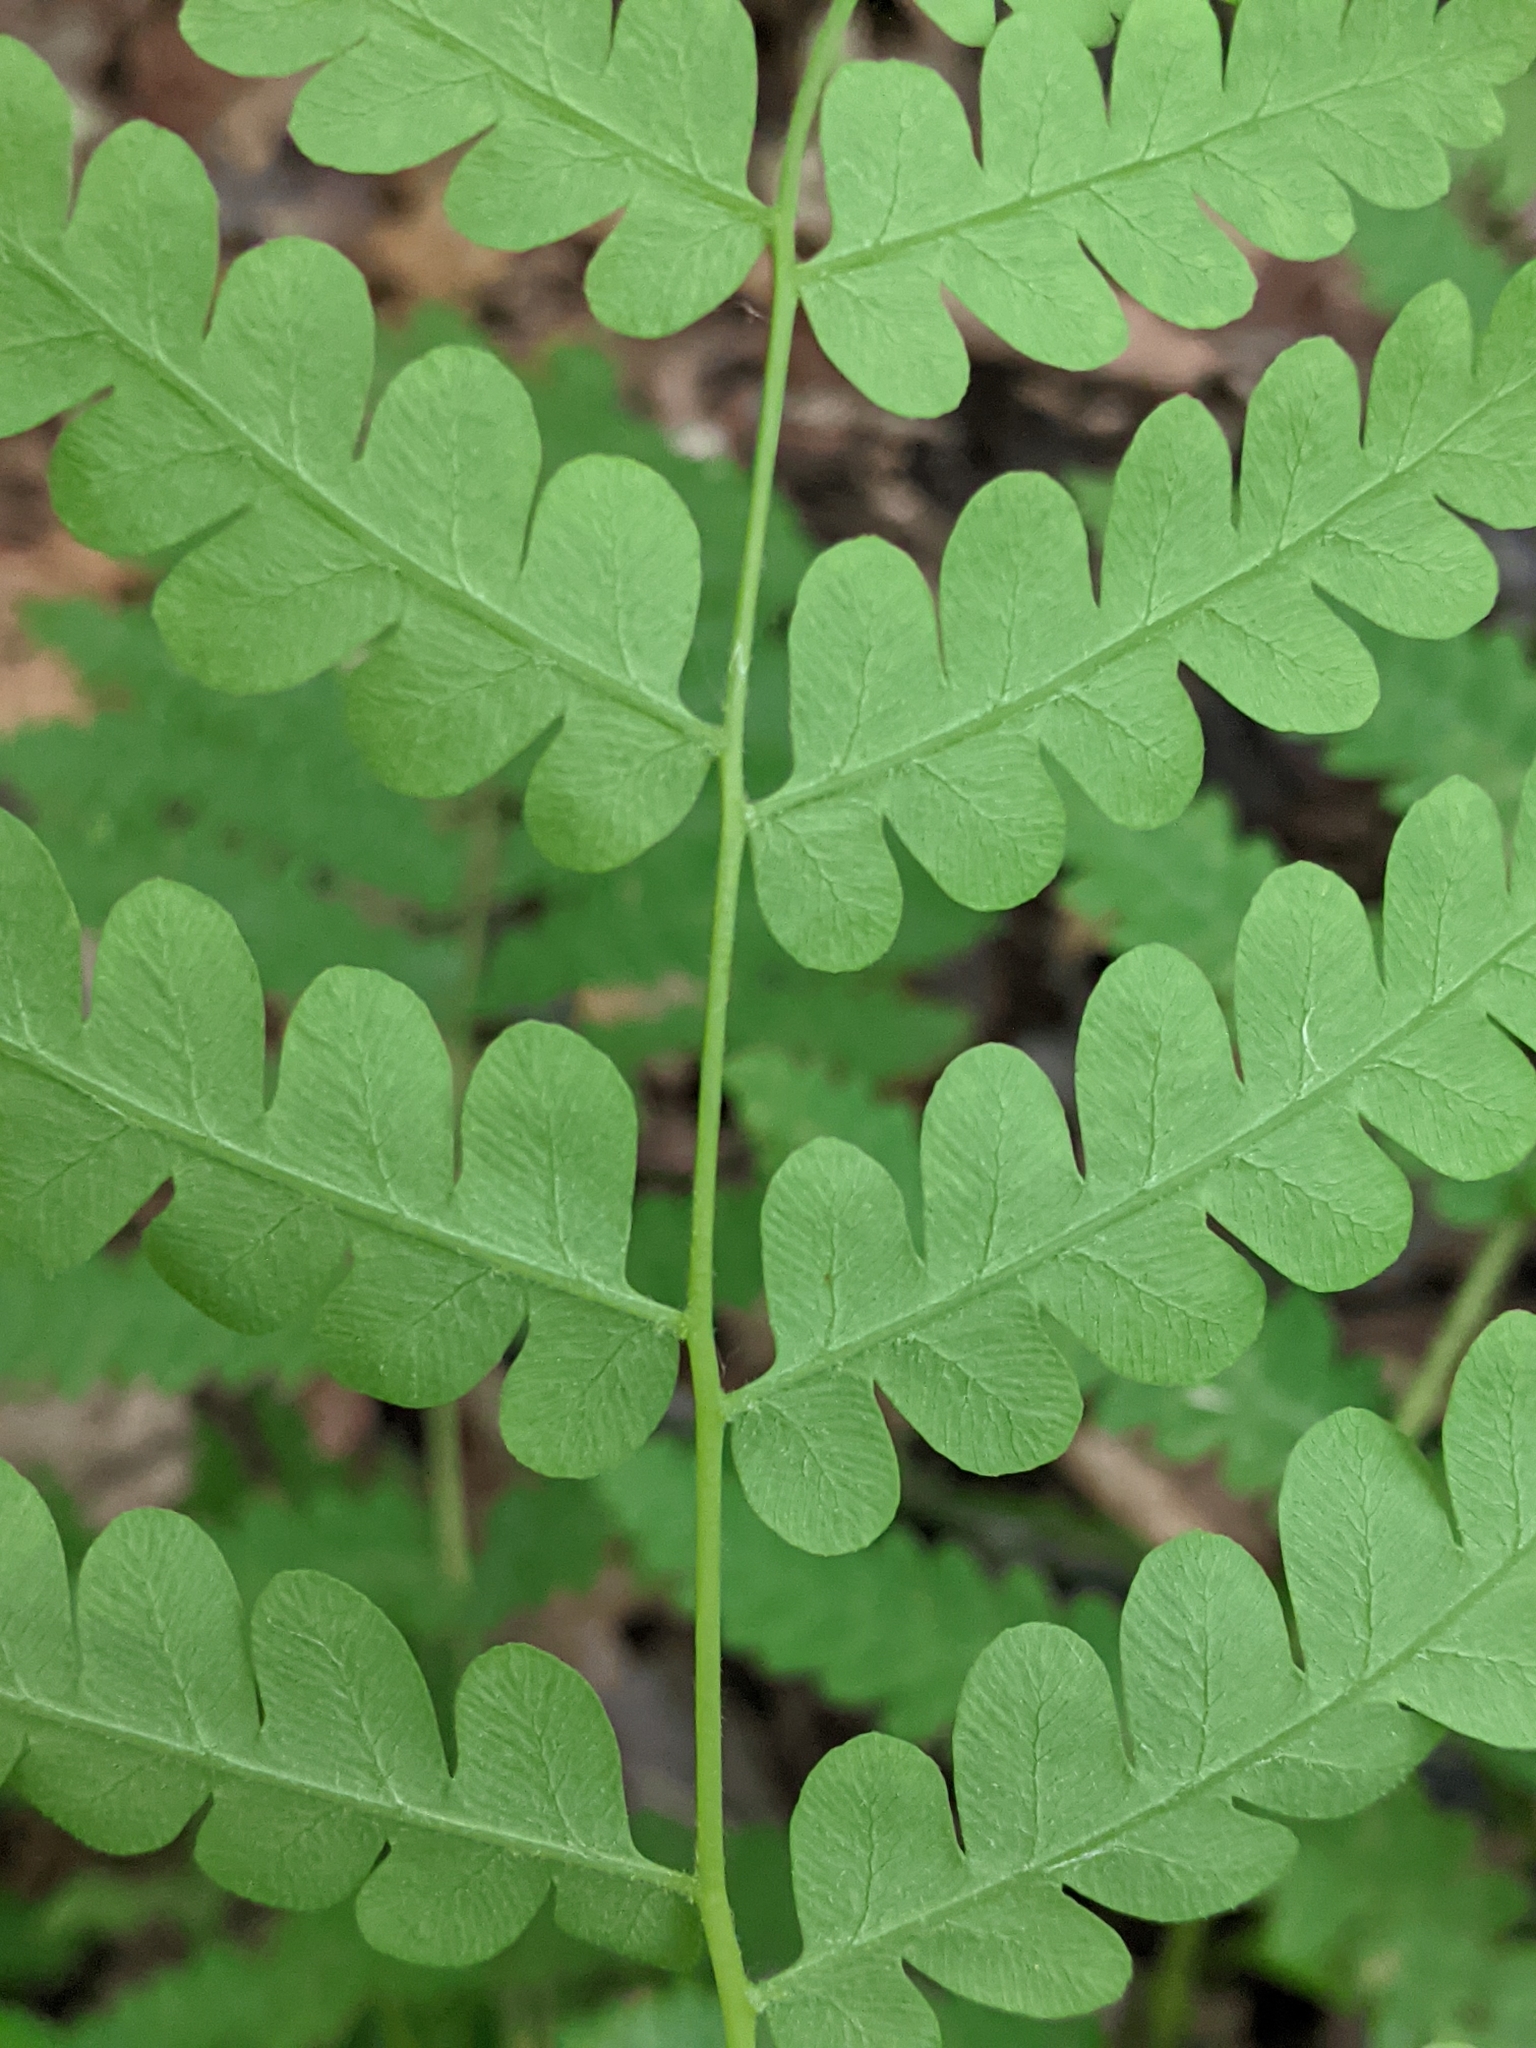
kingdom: Plantae
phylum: Tracheophyta
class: Polypodiopsida
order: Osmundales
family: Osmundaceae
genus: Claytosmunda
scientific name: Claytosmunda claytoniana
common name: Clayton's fern
